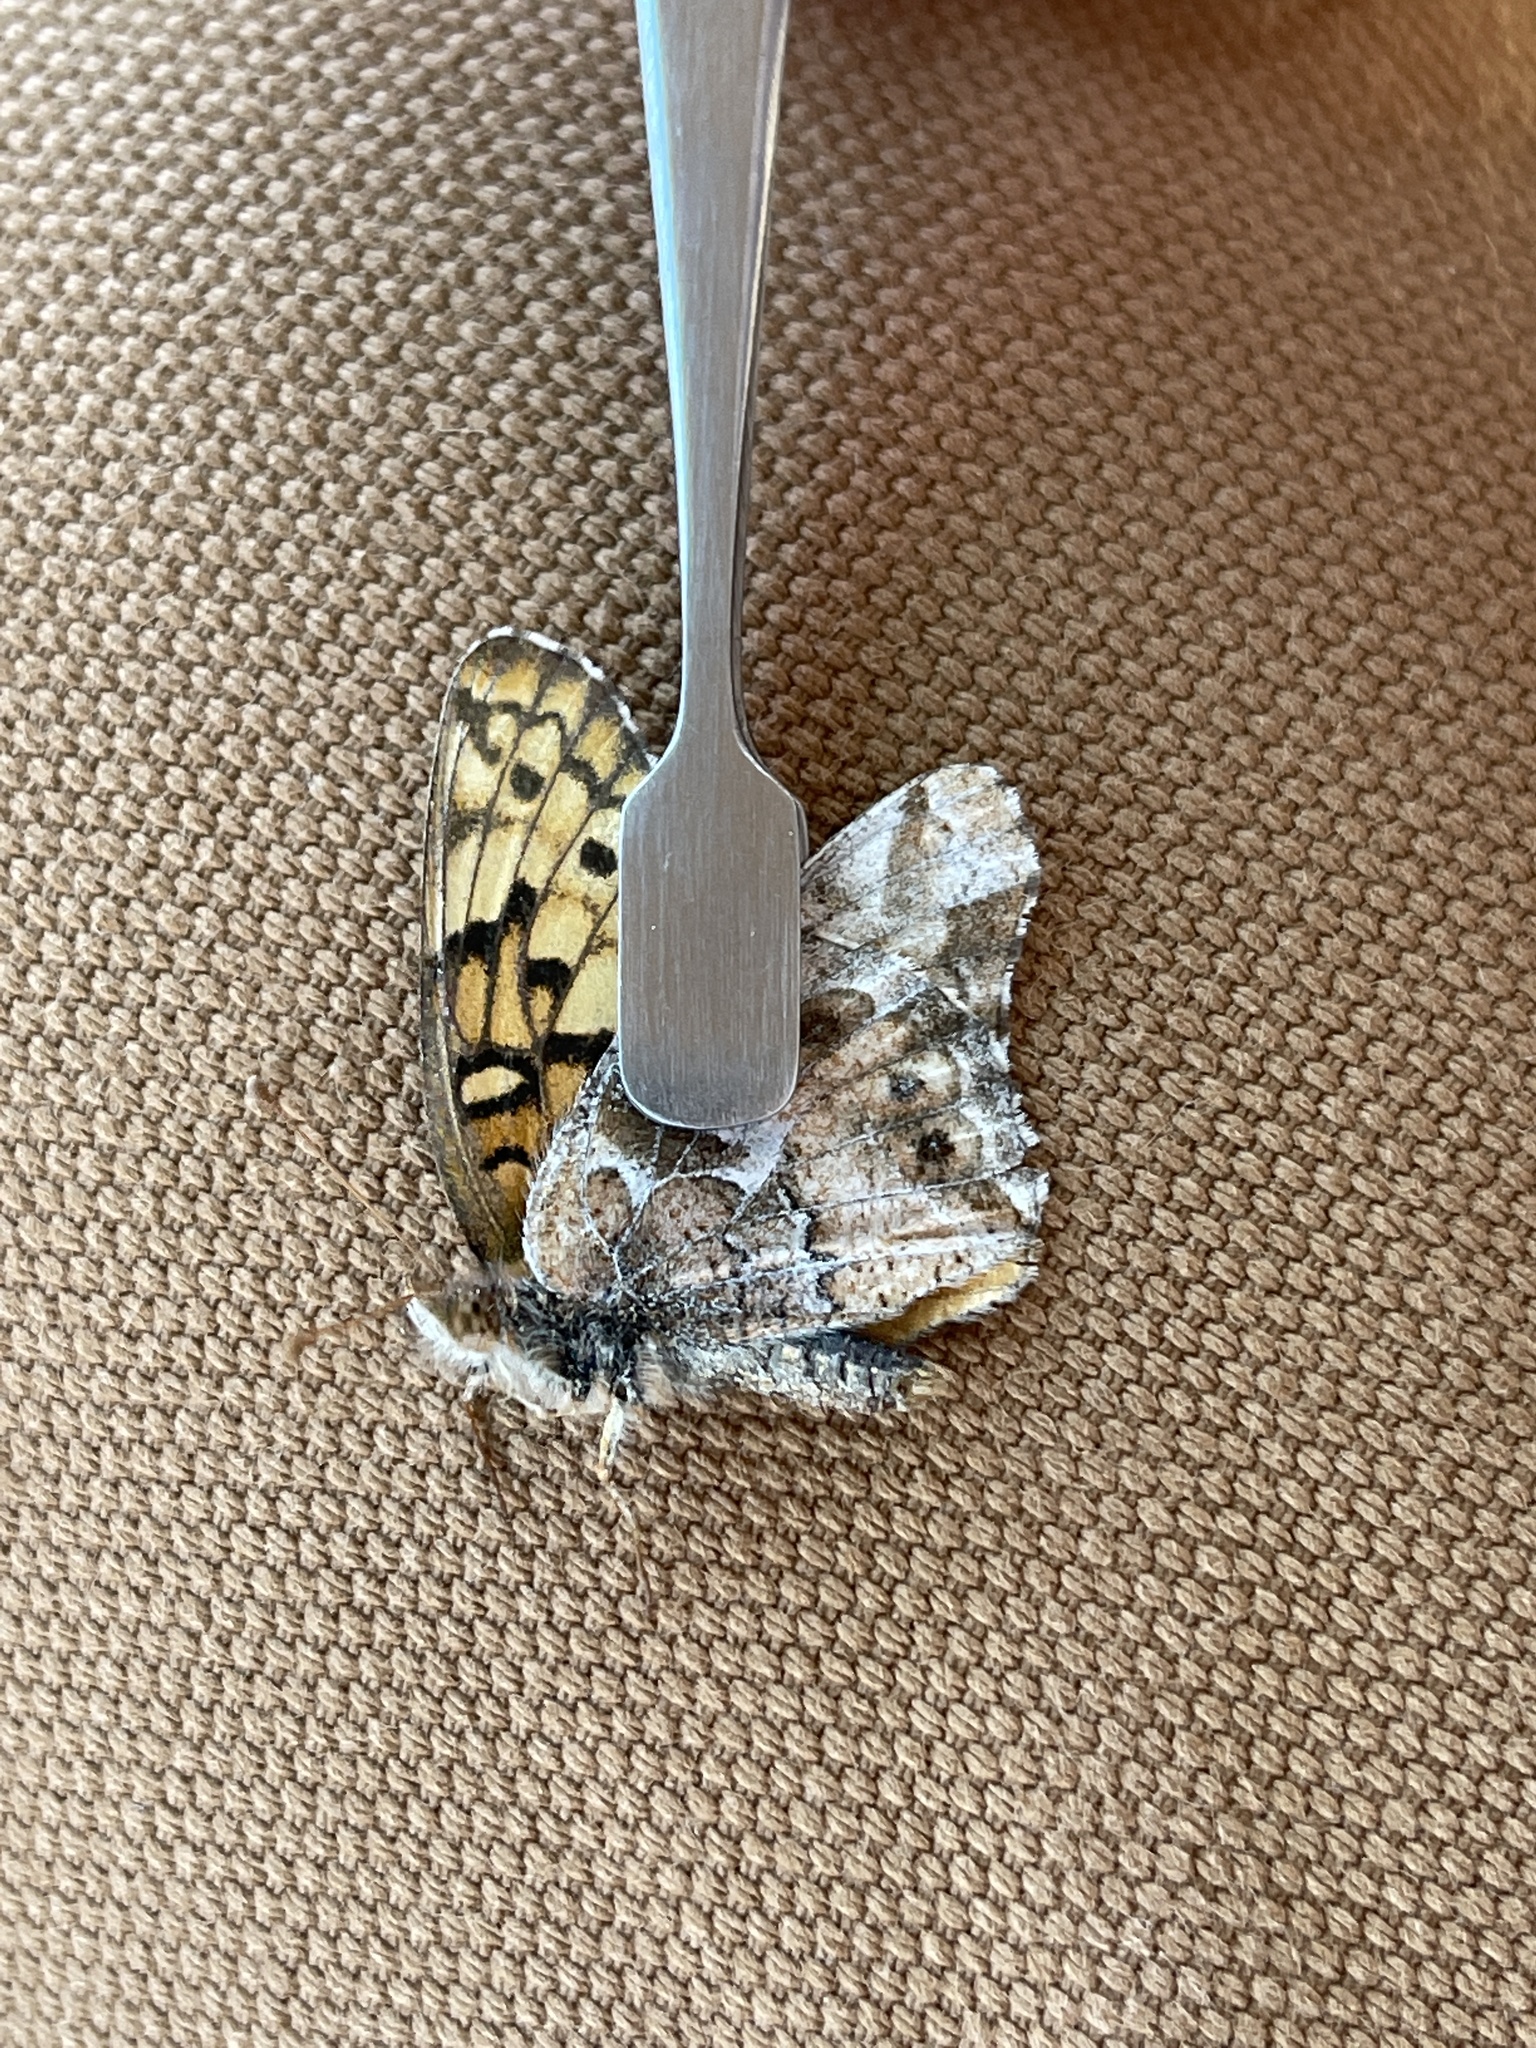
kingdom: Animalia
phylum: Arthropoda
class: Insecta
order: Lepidoptera
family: Nymphalidae
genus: Euptoieta
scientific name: Euptoieta claudia
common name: Variegated fritillary
